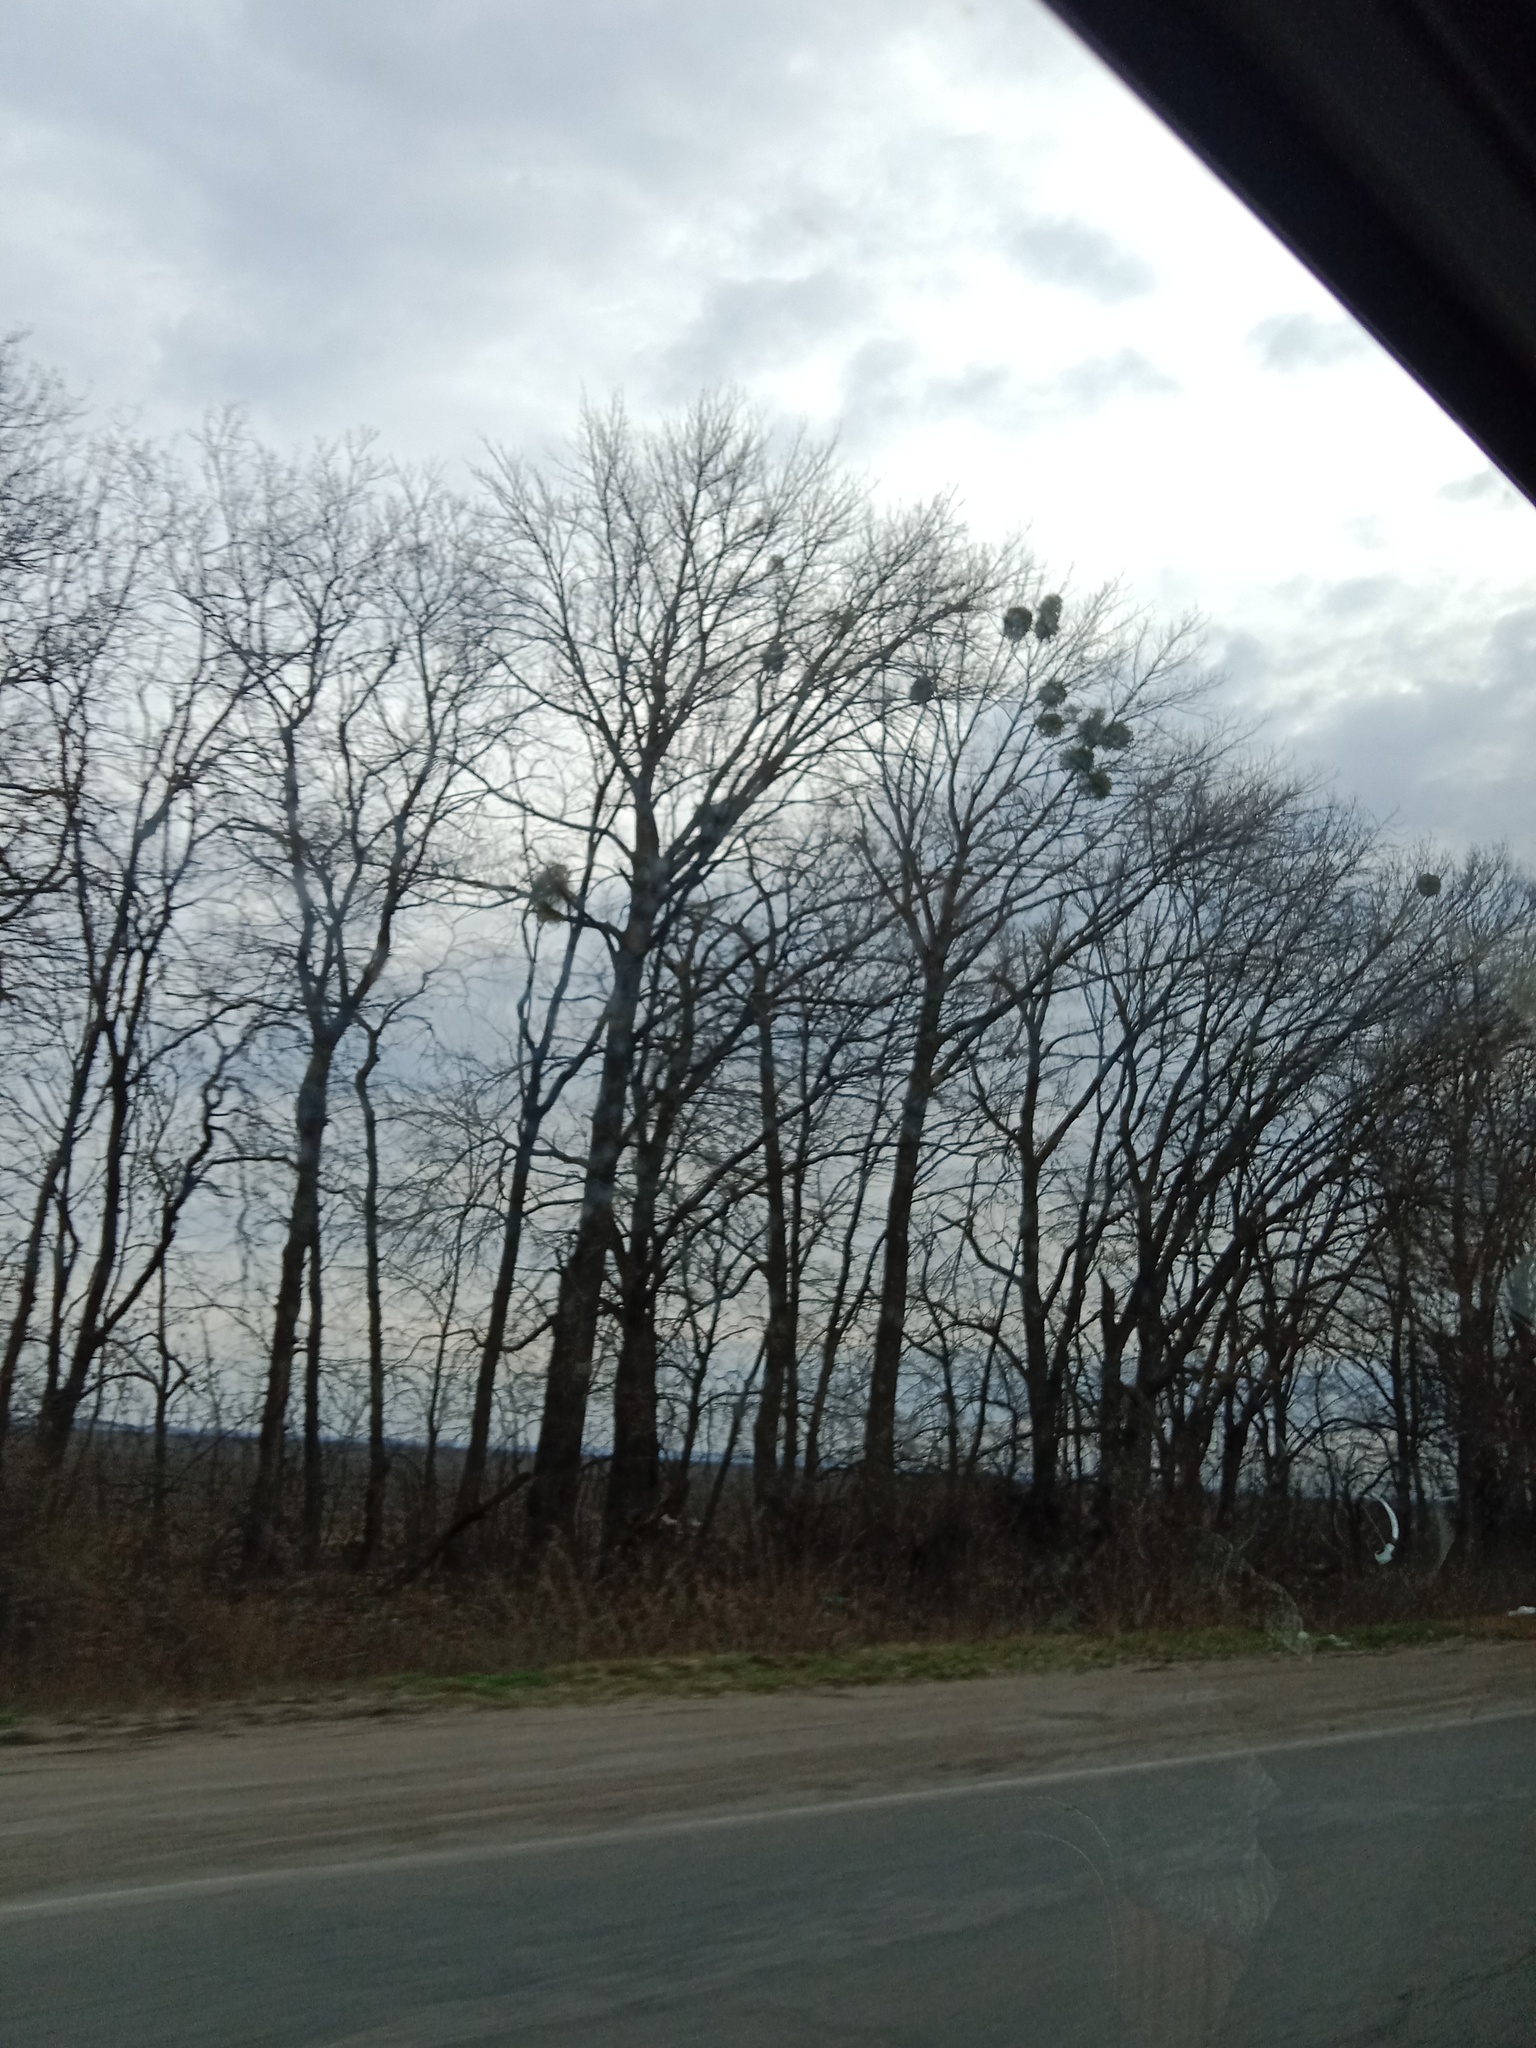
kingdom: Plantae
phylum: Tracheophyta
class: Magnoliopsida
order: Santalales
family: Viscaceae
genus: Viscum
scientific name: Viscum album
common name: Mistletoe
